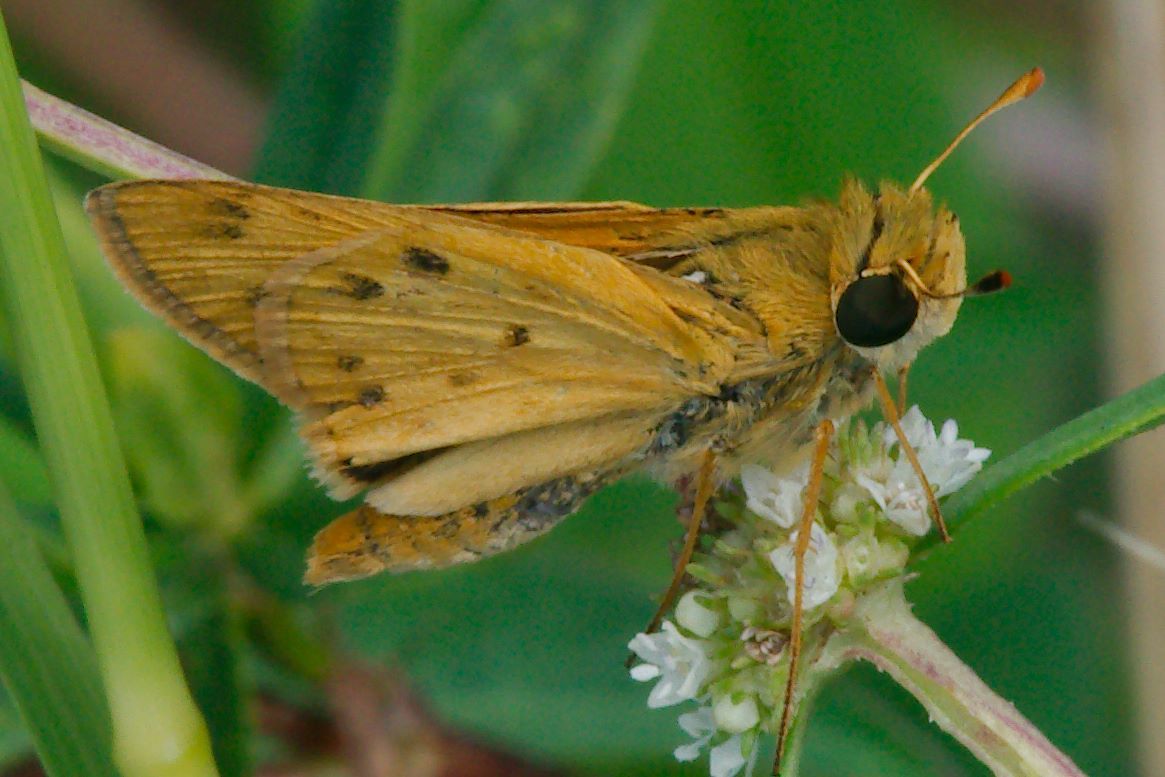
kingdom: Animalia
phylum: Arthropoda
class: Insecta
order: Lepidoptera
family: Hesperiidae
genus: Hylephila
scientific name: Hylephila phyleus
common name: Fiery skipper
